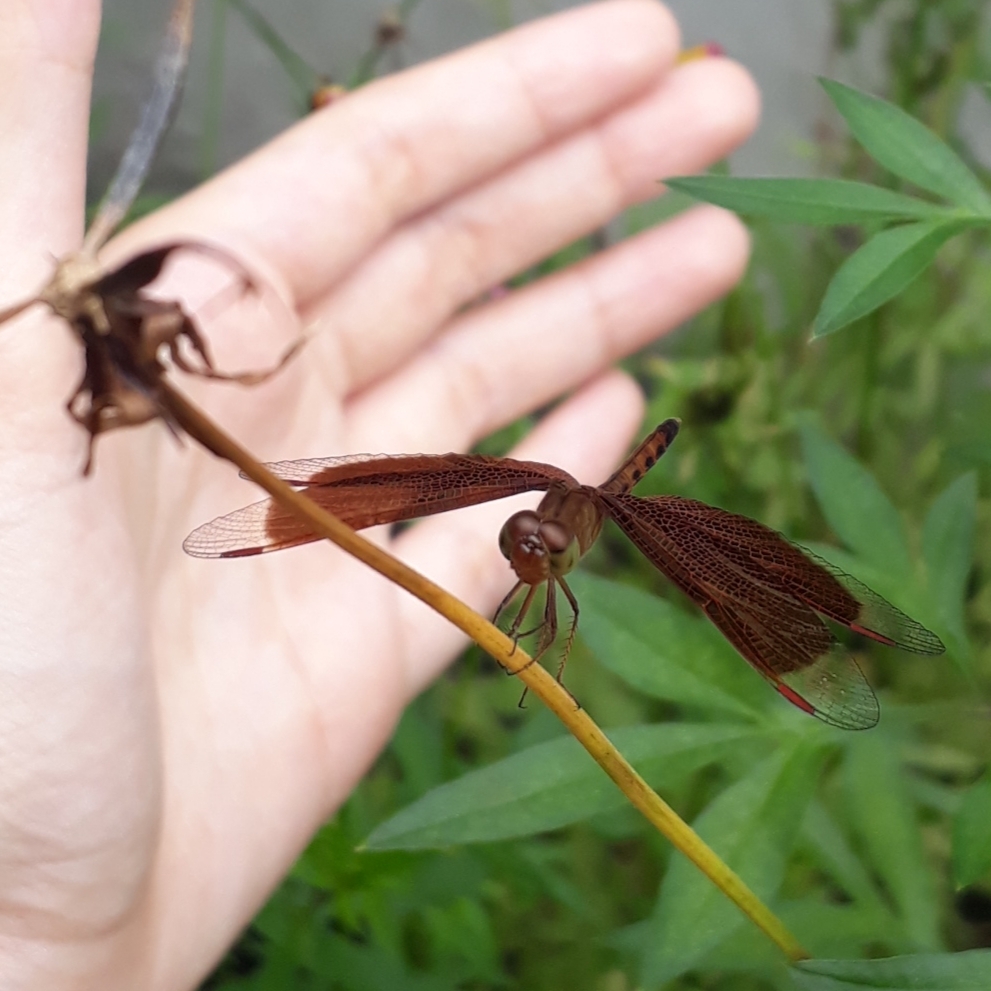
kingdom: Animalia
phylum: Arthropoda
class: Insecta
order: Odonata
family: Libellulidae
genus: Neurothemis
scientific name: Neurothemis fluctuans
